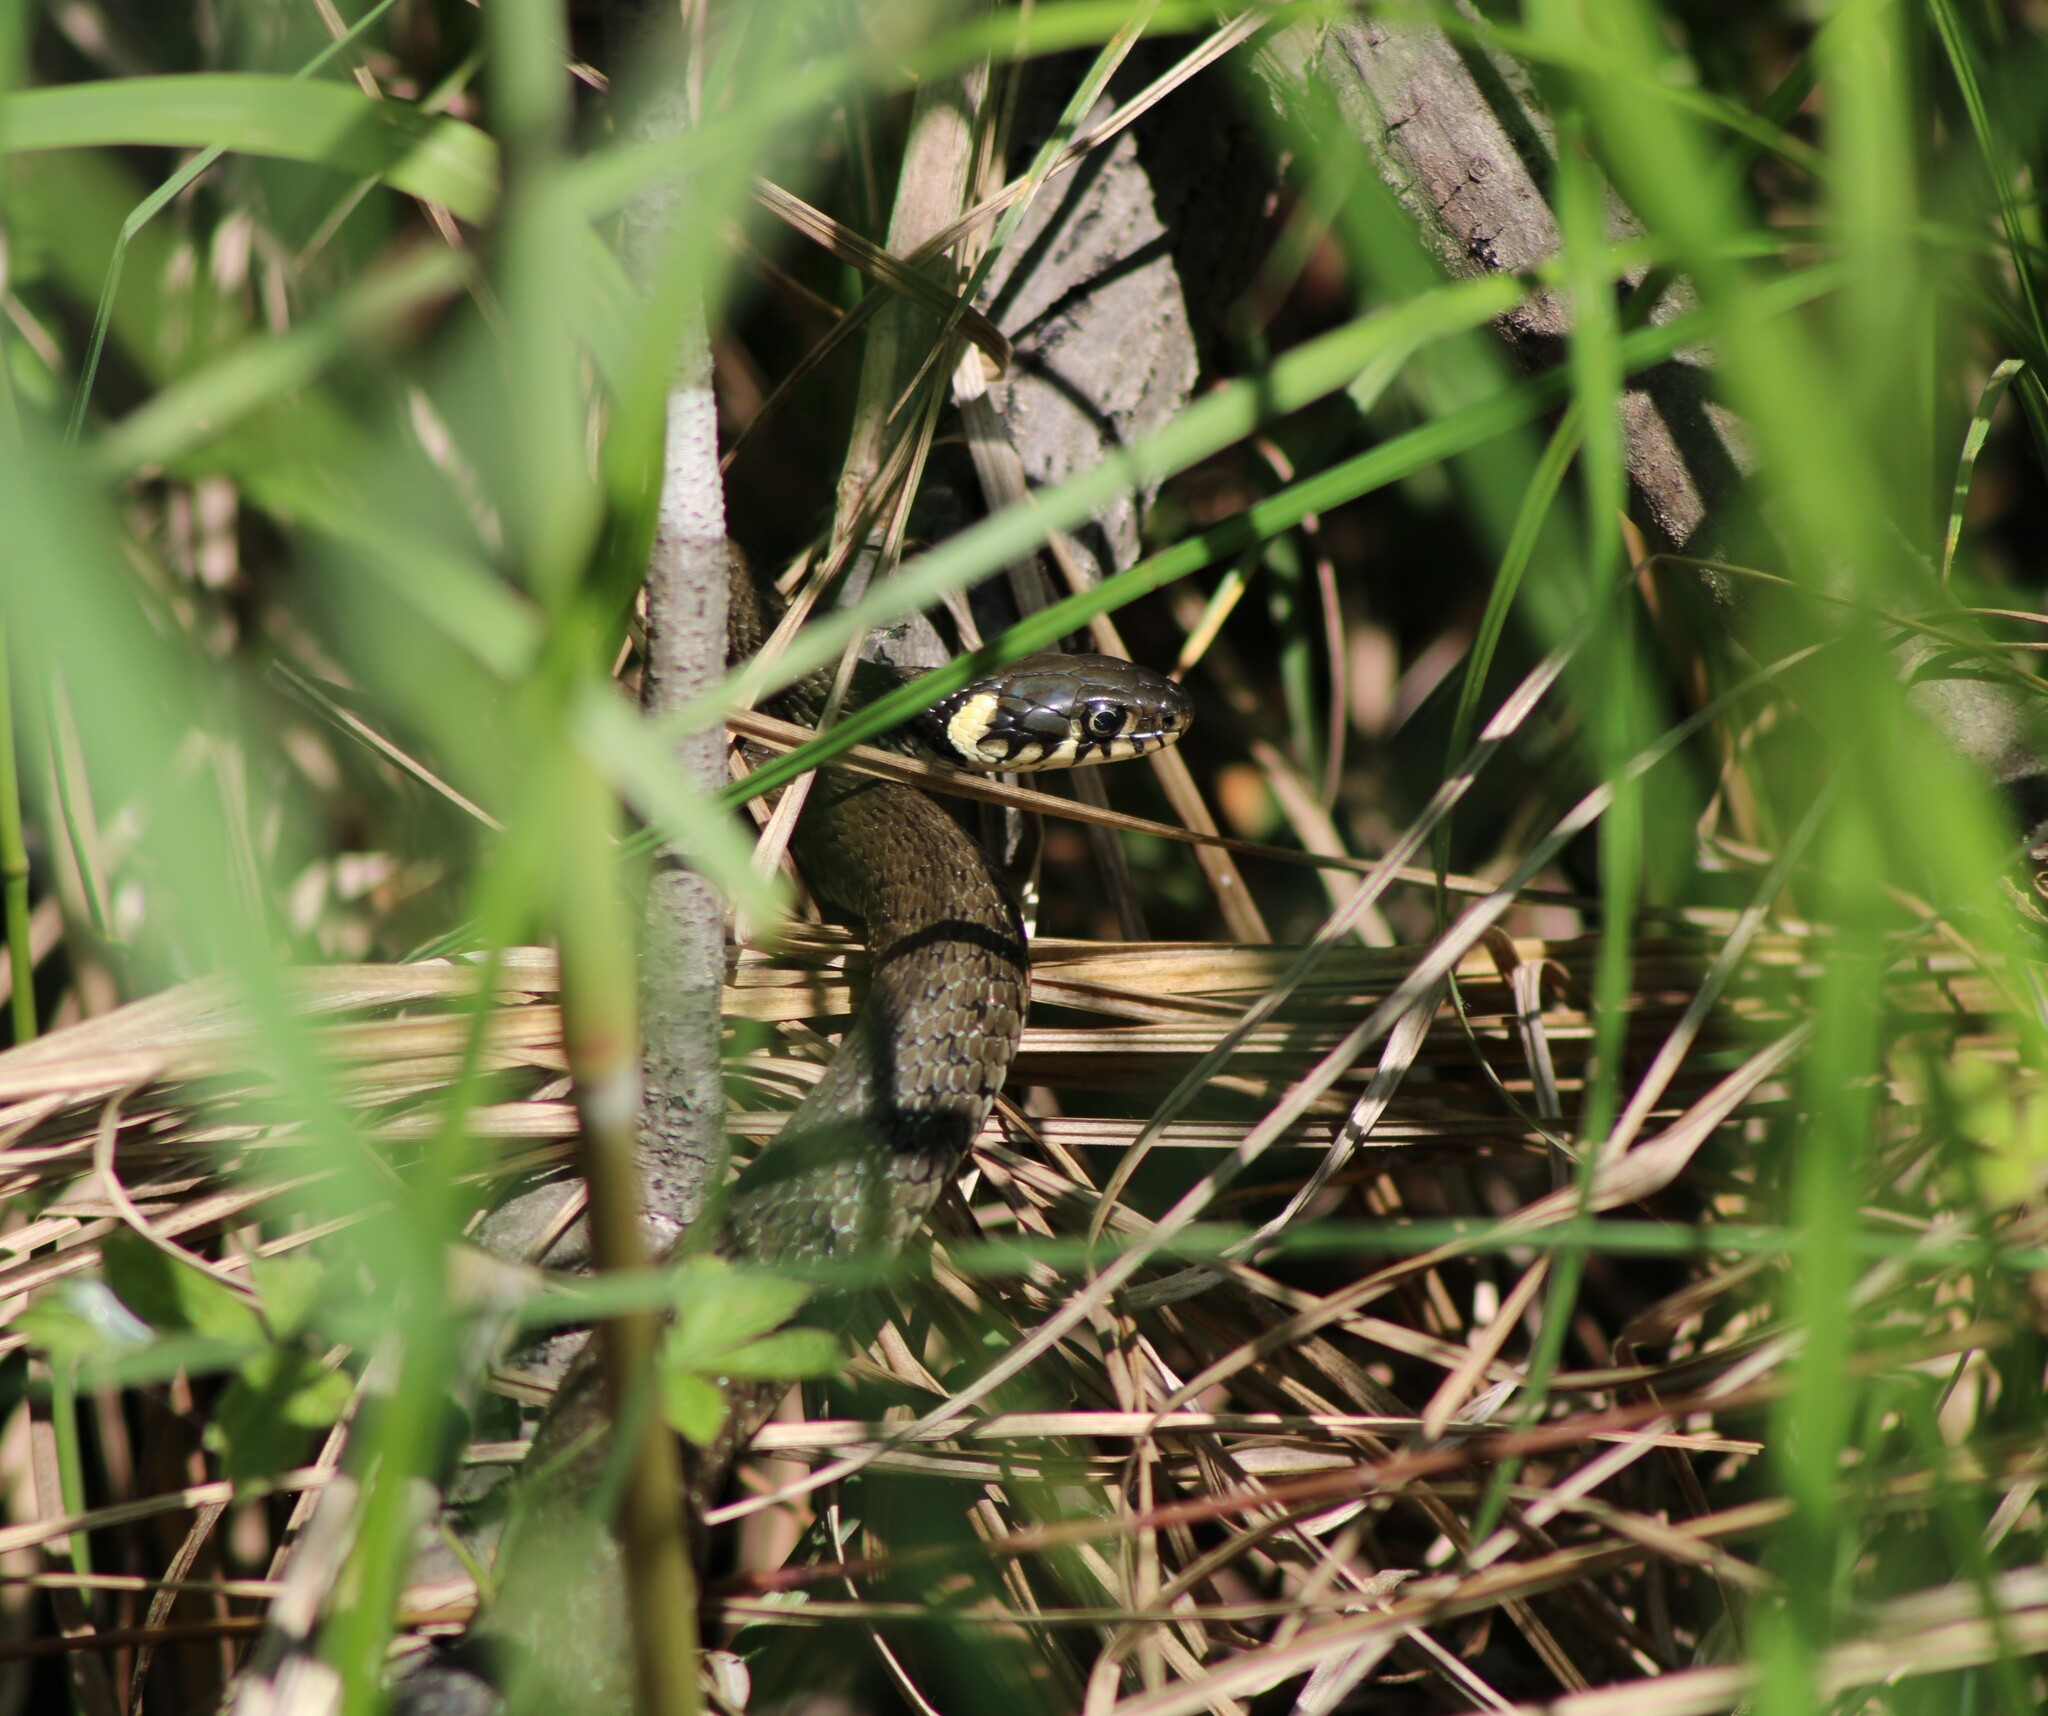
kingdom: Animalia
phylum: Chordata
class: Squamata
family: Colubridae
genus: Natrix
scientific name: Natrix natrix
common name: Grass snake
